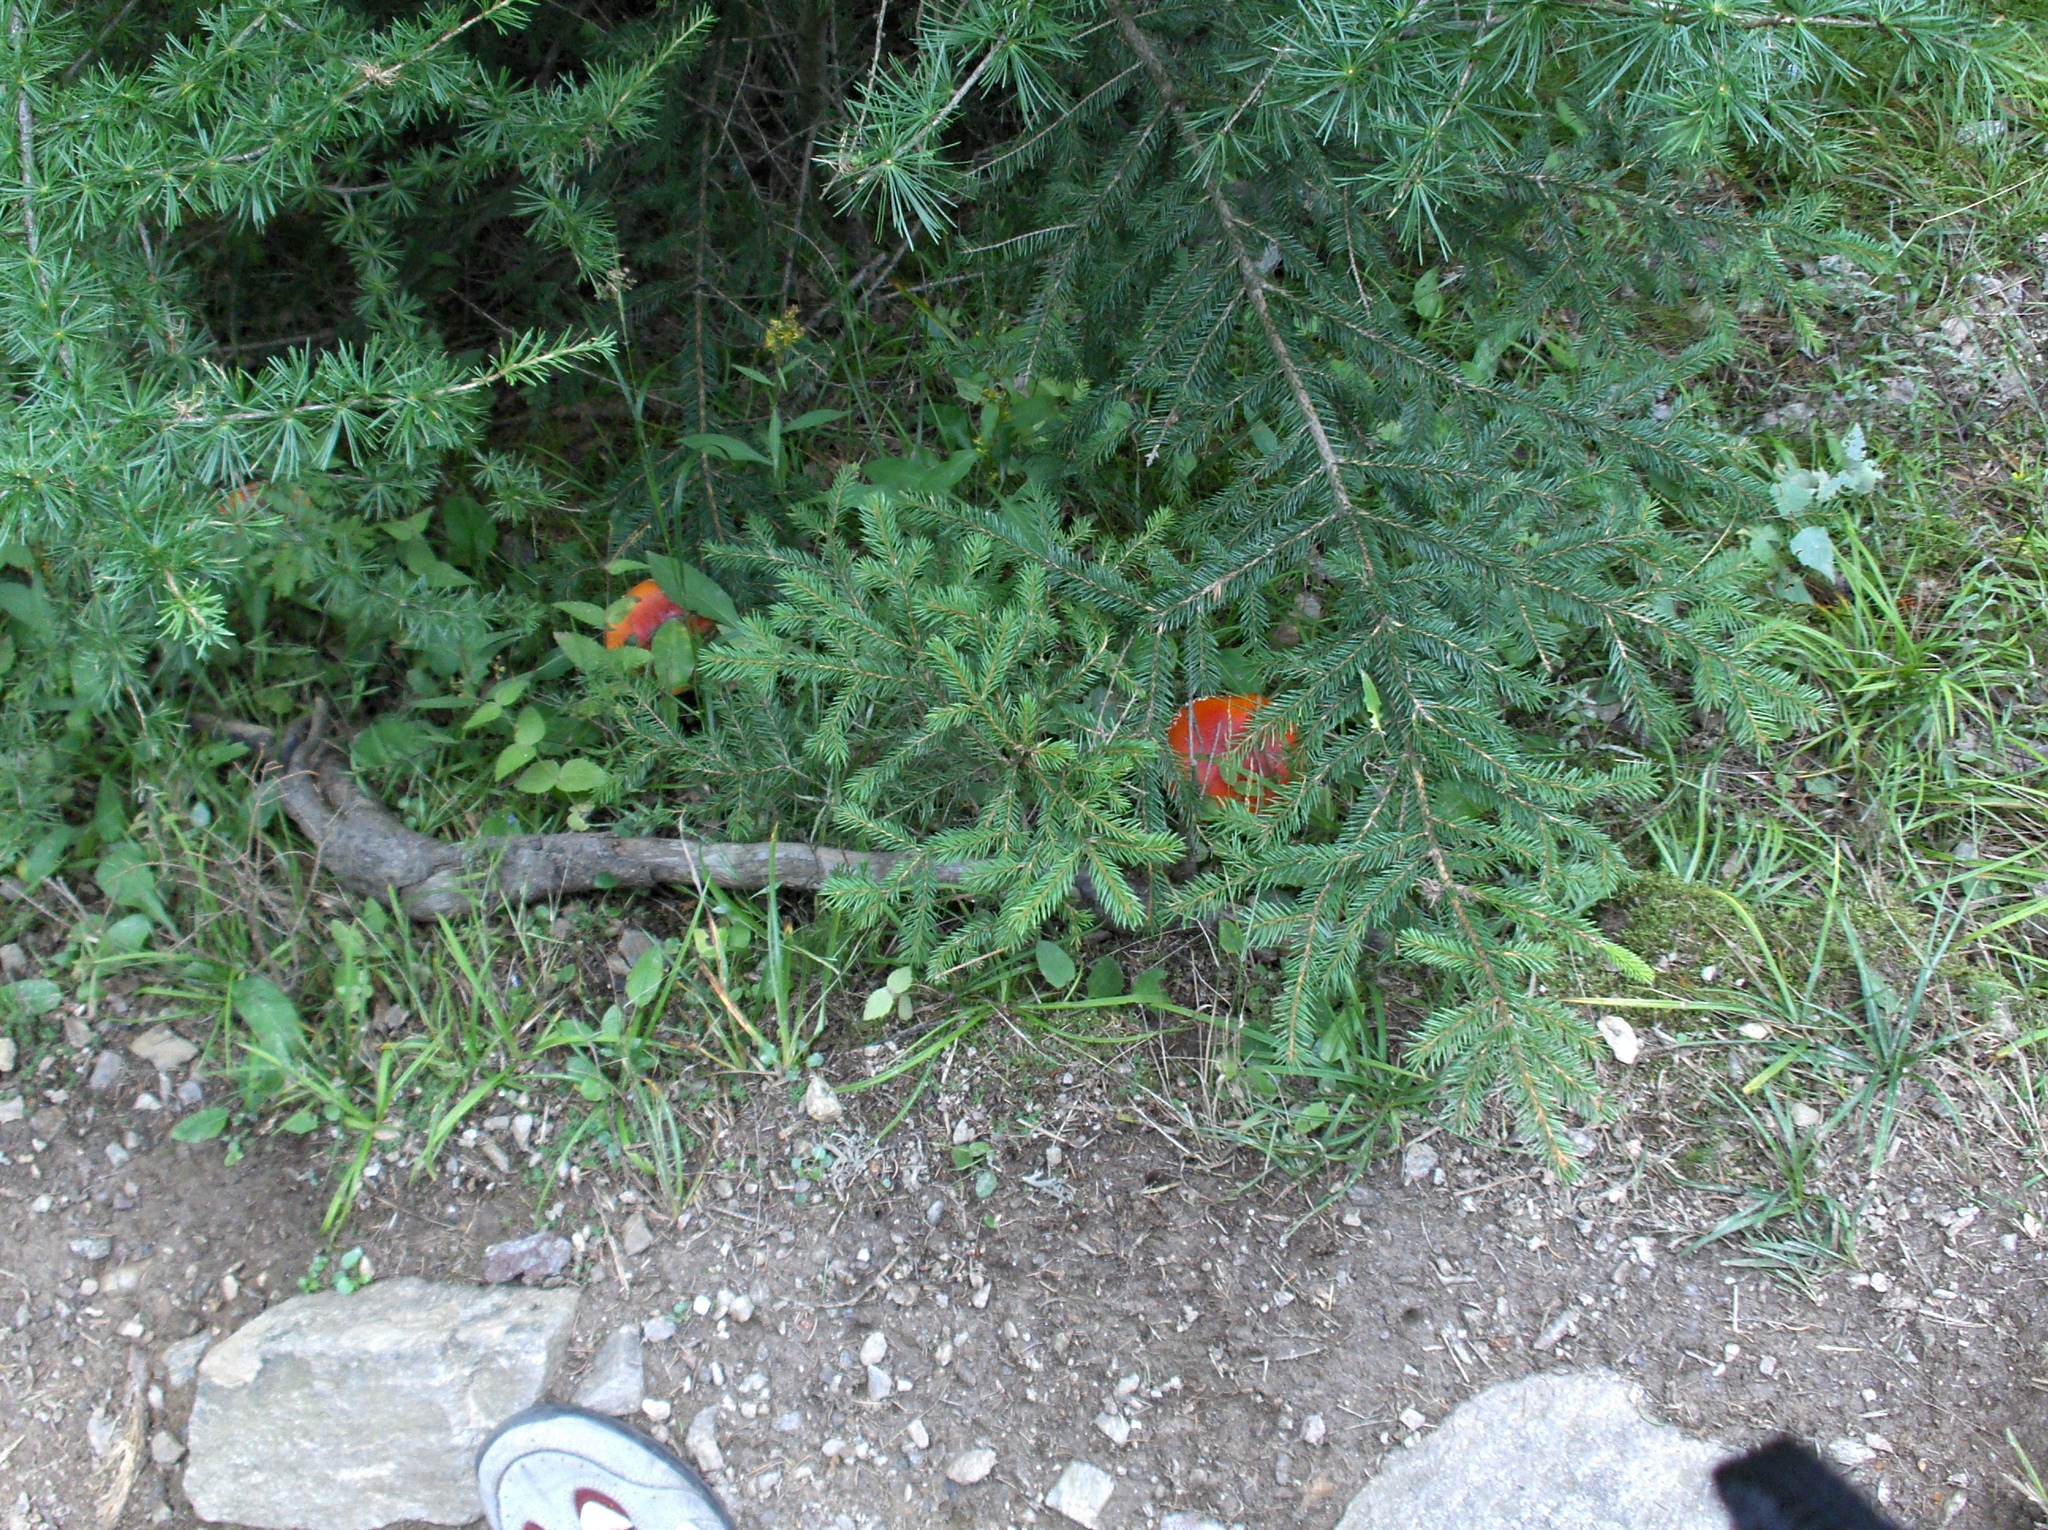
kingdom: Fungi
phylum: Basidiomycota
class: Agaricomycetes
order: Agaricales
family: Amanitaceae
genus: Amanita
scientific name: Amanita muscaria
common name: Fly agaric
